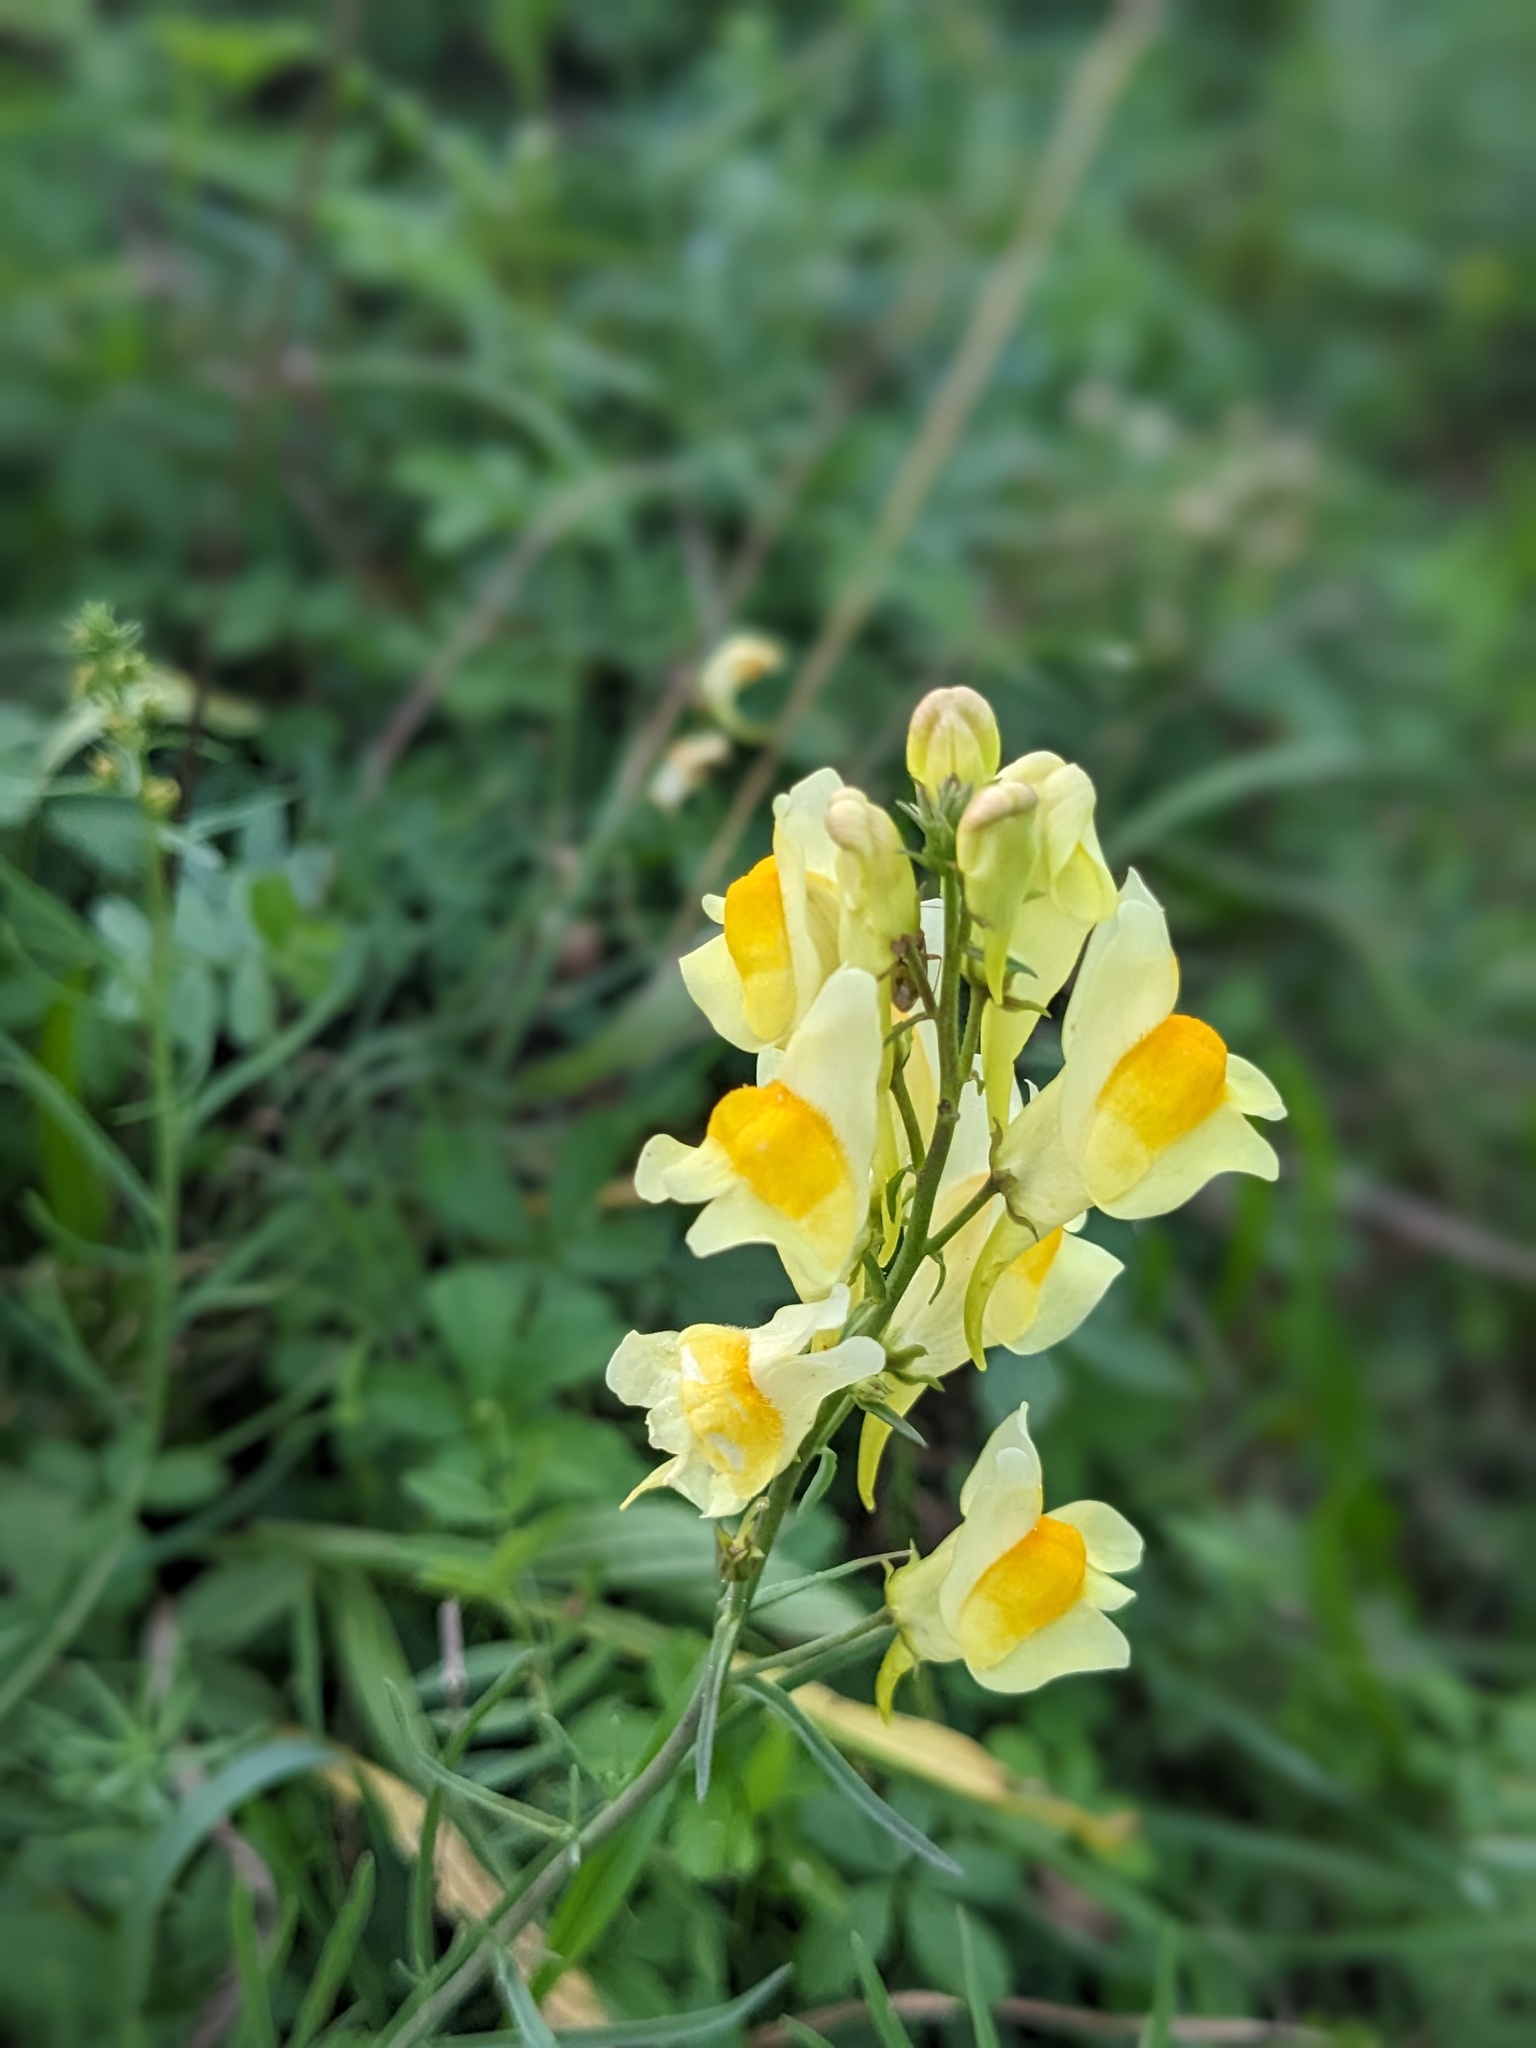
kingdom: Plantae
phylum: Tracheophyta
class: Magnoliopsida
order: Lamiales
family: Plantaginaceae
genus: Linaria
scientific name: Linaria vulgaris
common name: Butter and eggs
